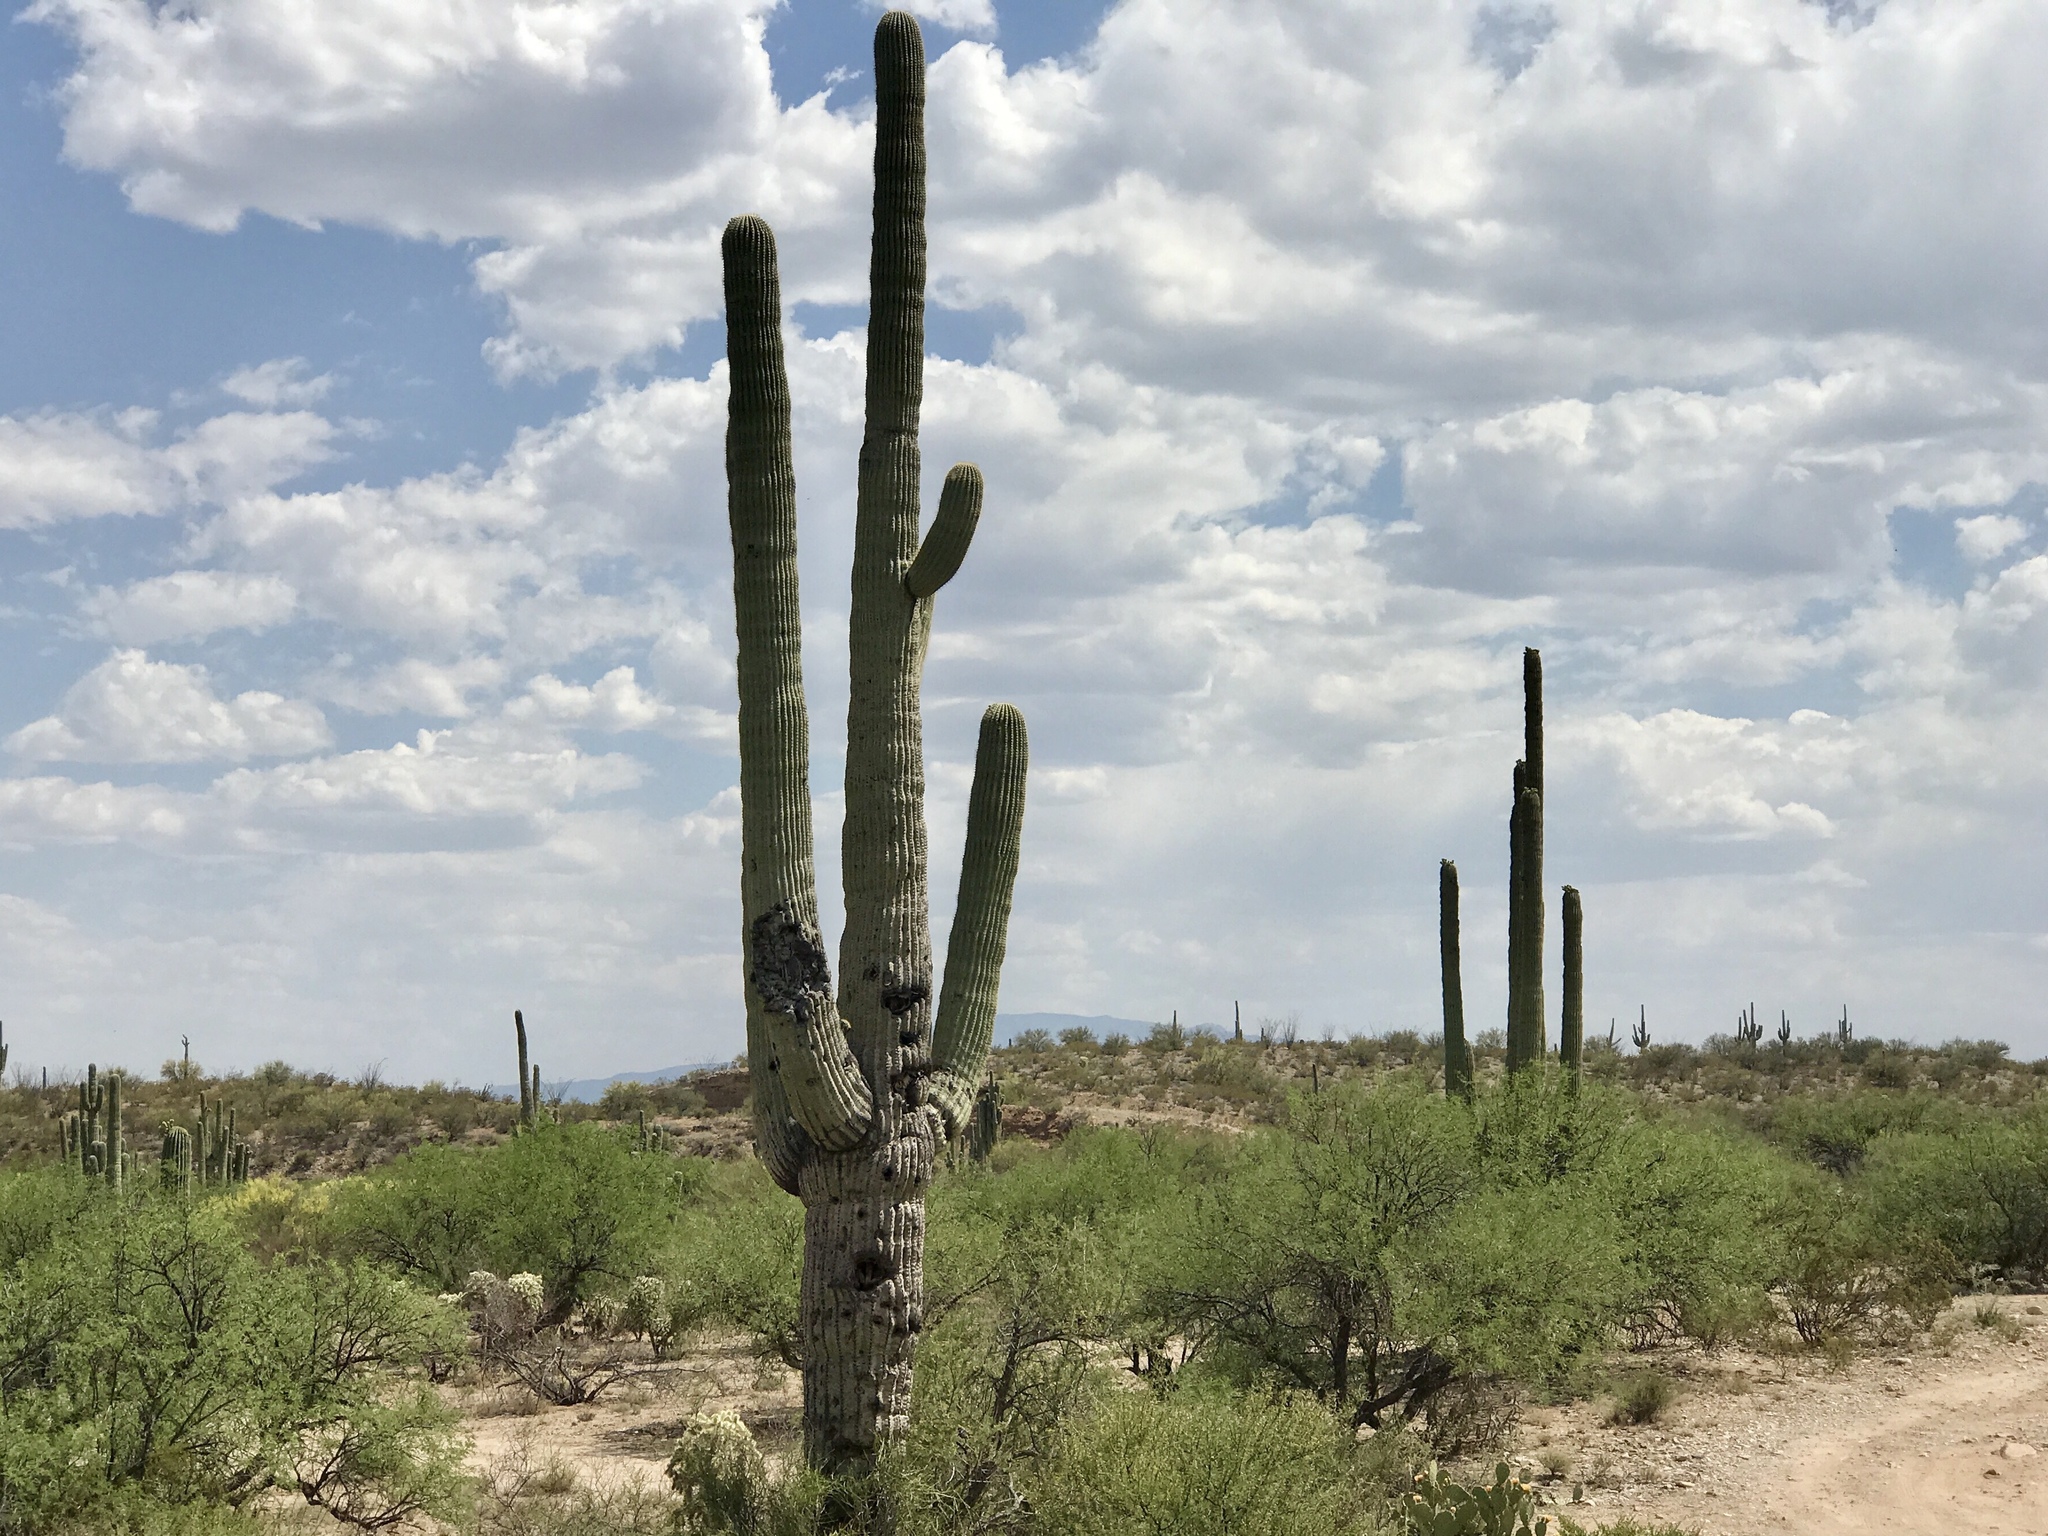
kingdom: Plantae
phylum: Tracheophyta
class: Magnoliopsida
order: Caryophyllales
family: Cactaceae
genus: Carnegiea
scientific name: Carnegiea gigantea
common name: Saguaro
